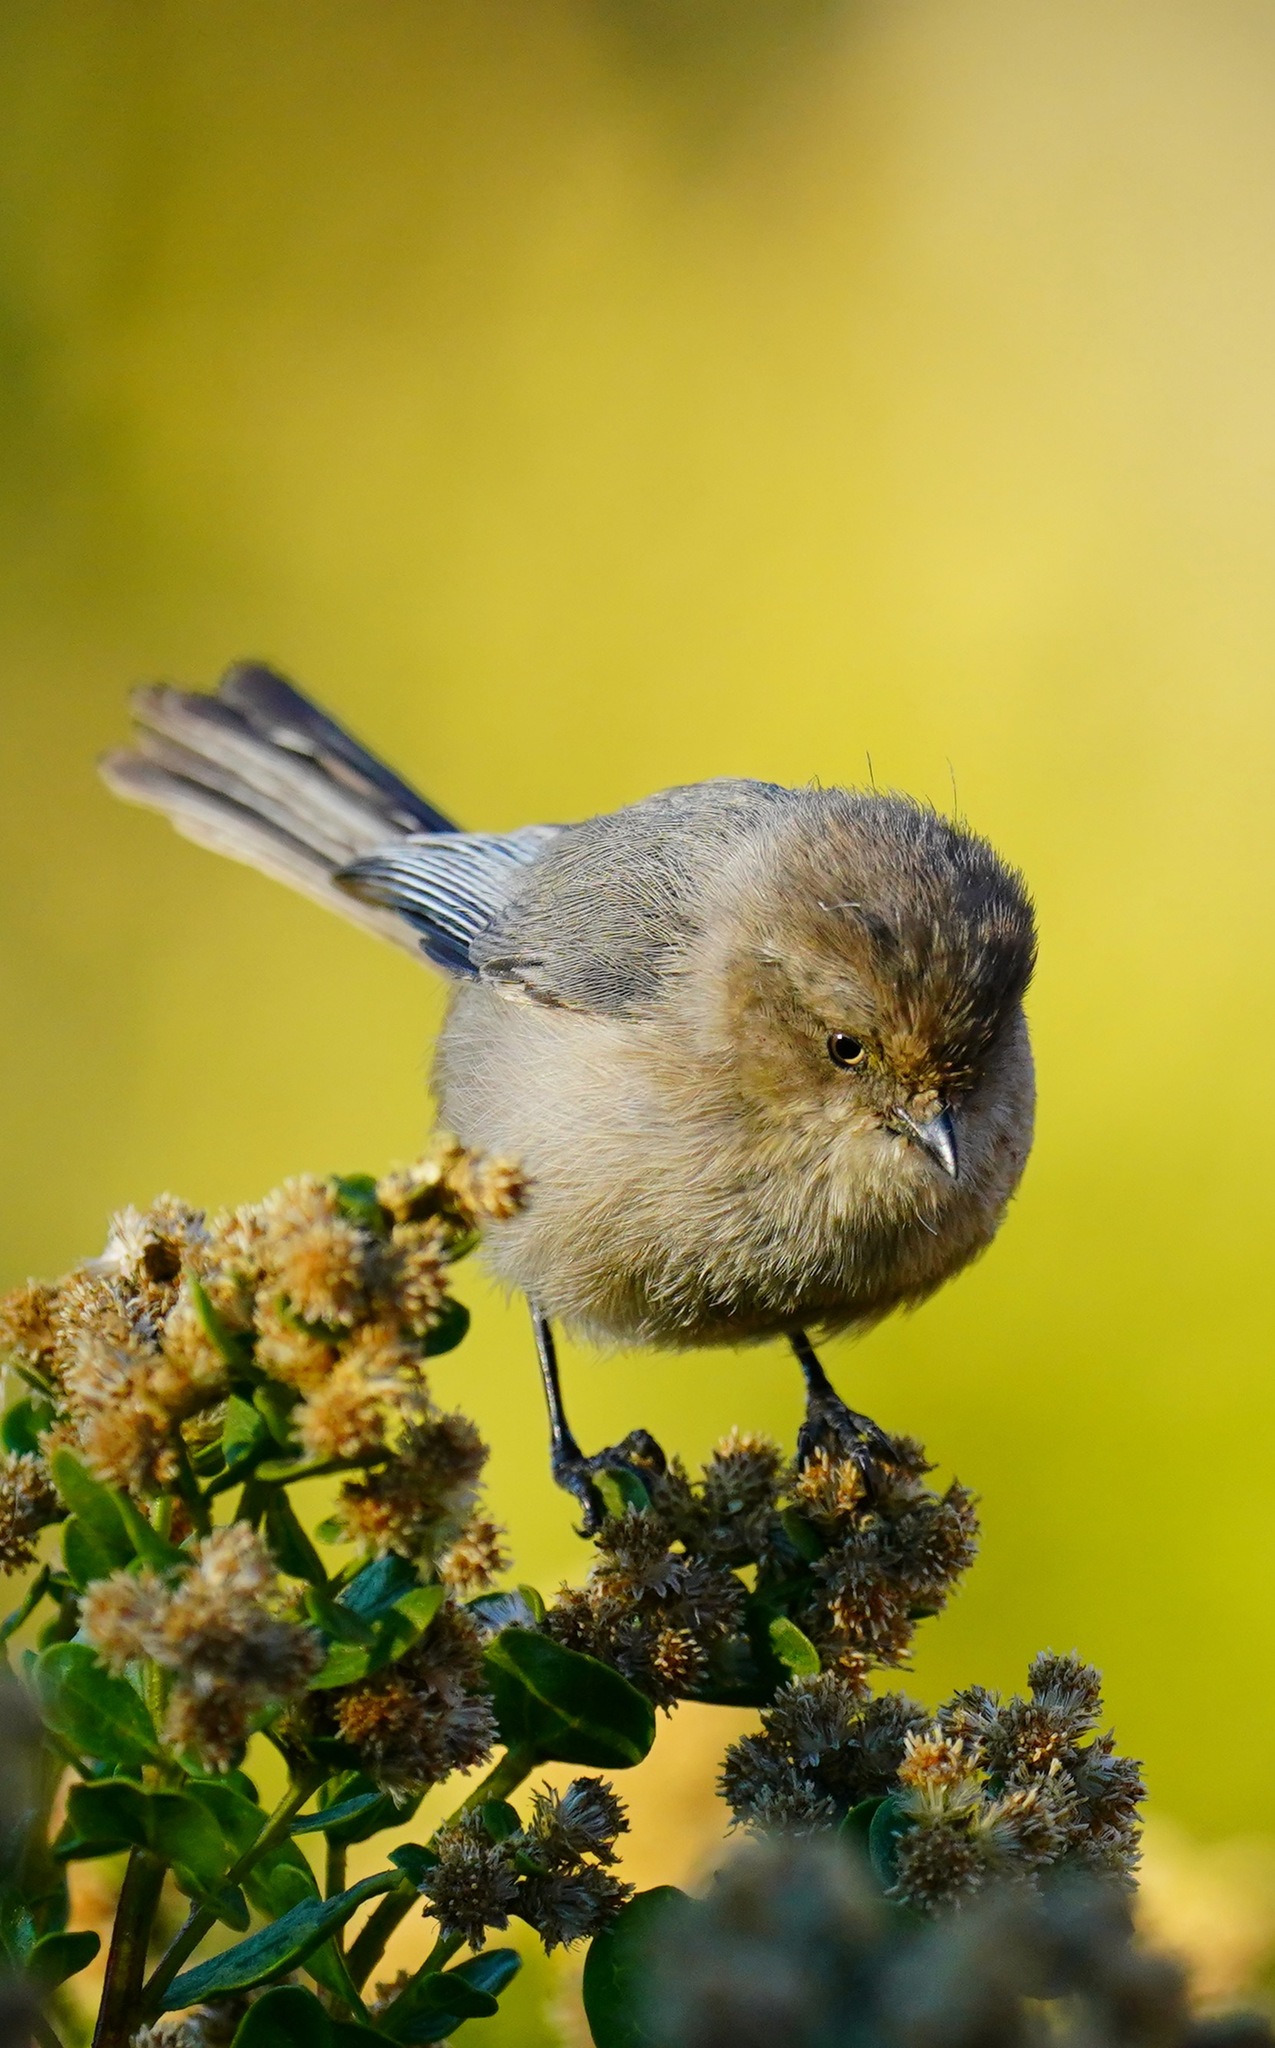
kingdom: Animalia
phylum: Chordata
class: Aves
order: Passeriformes
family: Aegithalidae
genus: Psaltriparus
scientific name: Psaltriparus minimus
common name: American bushtit
